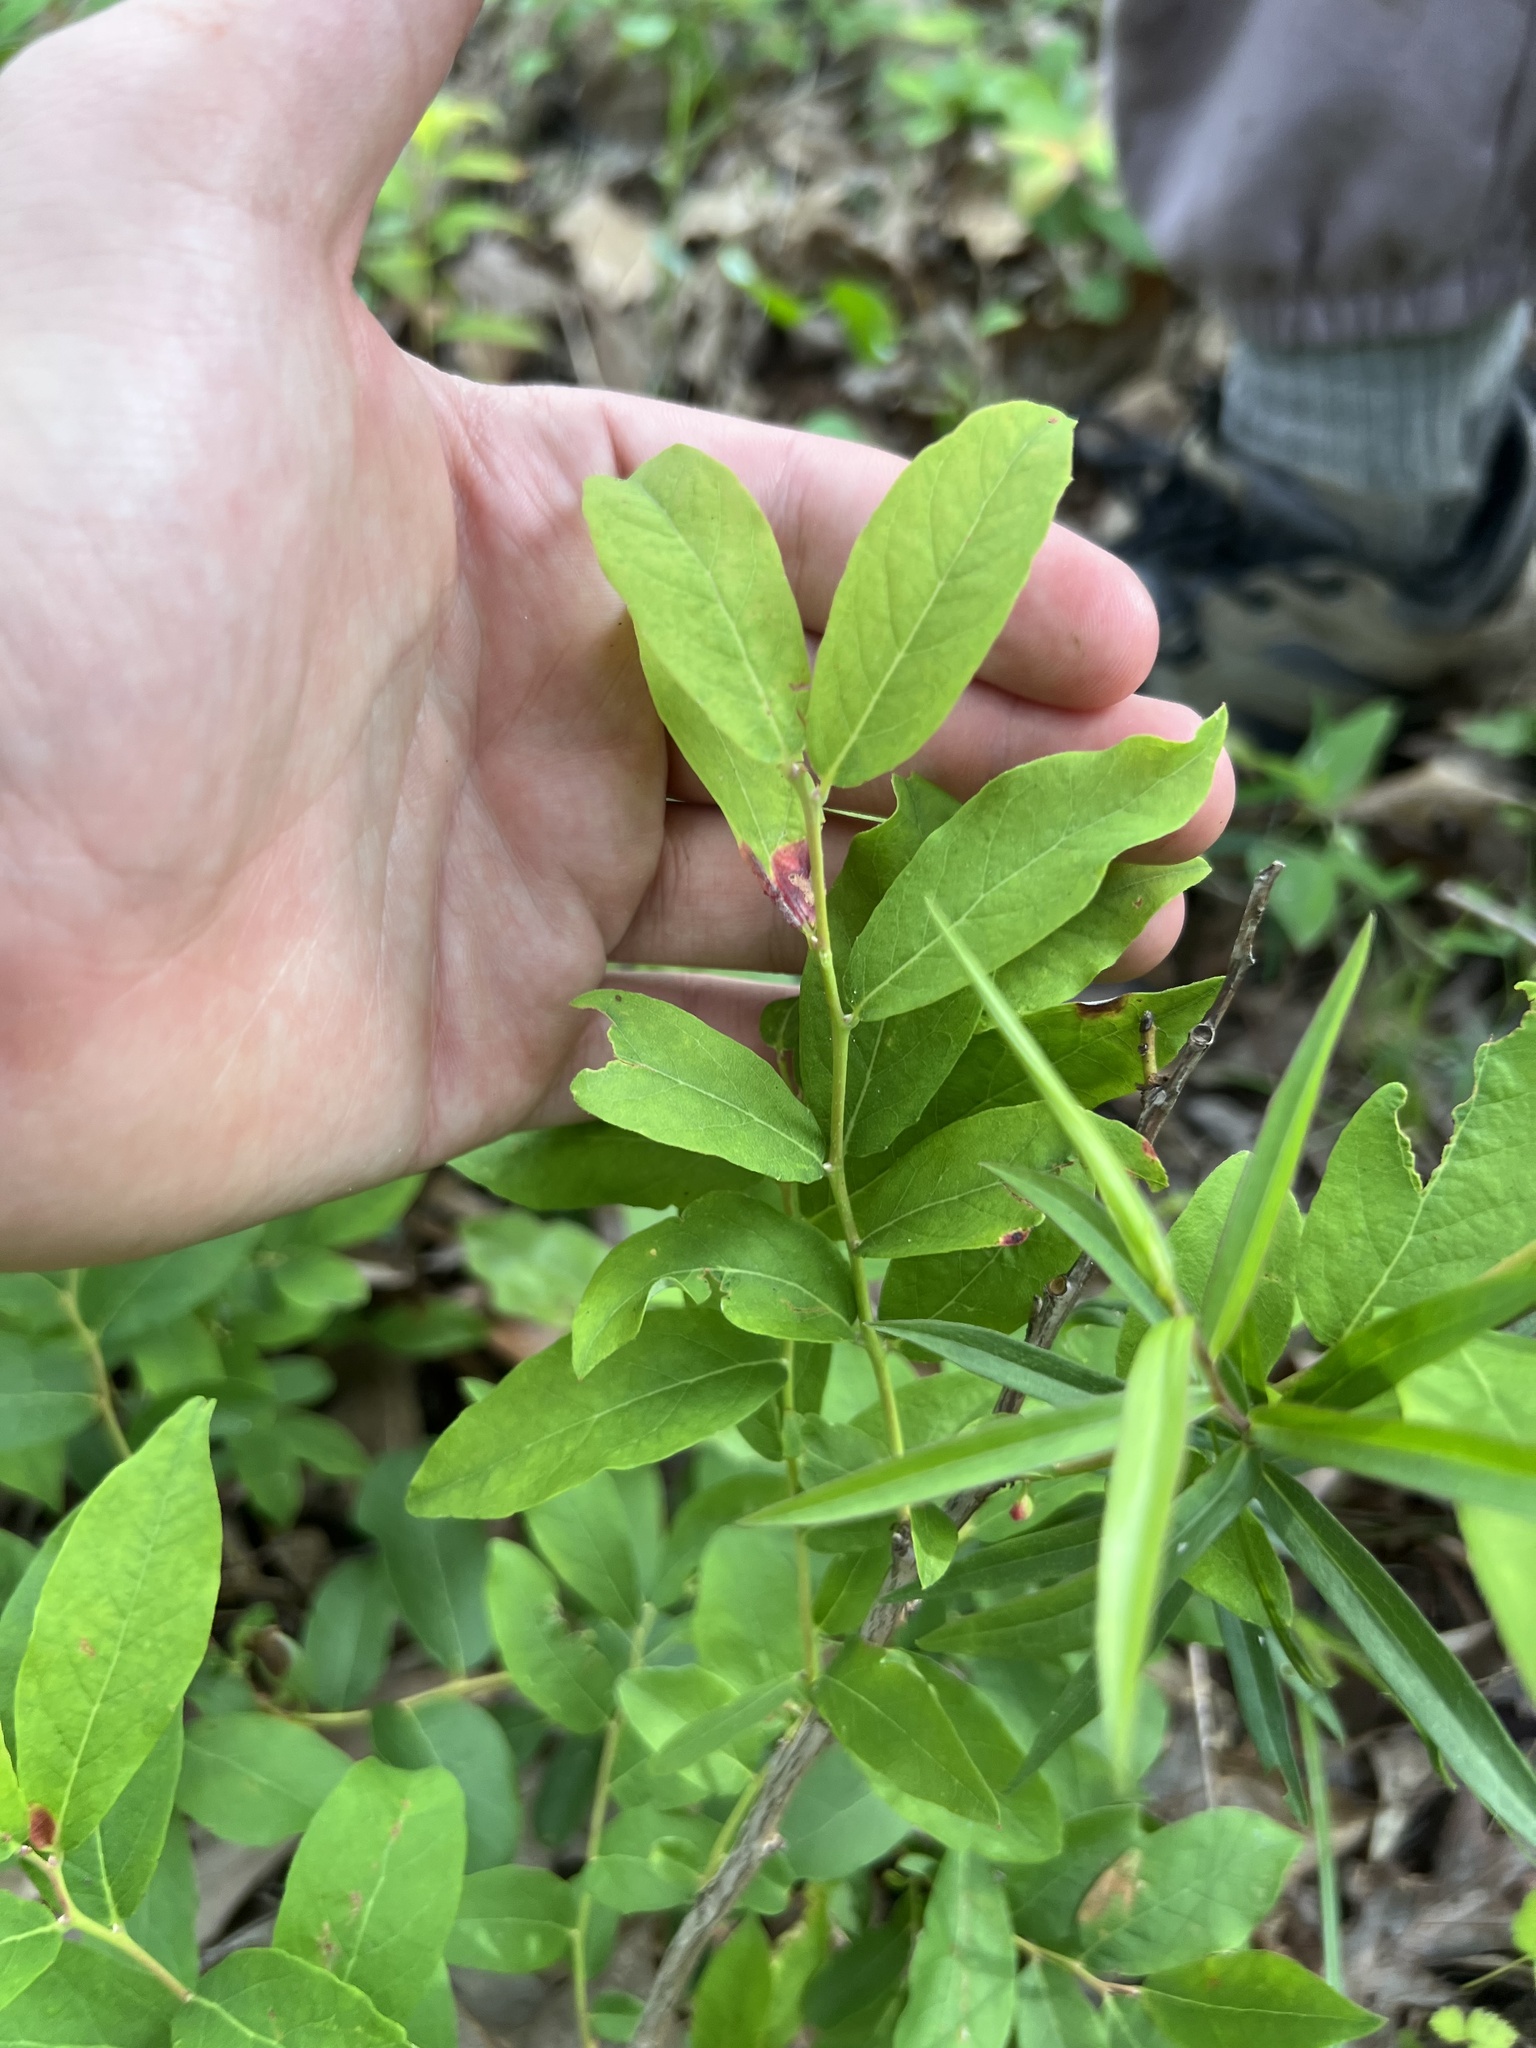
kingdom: Plantae
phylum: Tracheophyta
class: Magnoliopsida
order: Ericales
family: Ericaceae
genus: Vaccinium
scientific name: Vaccinium stamineum
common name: Deerberry
